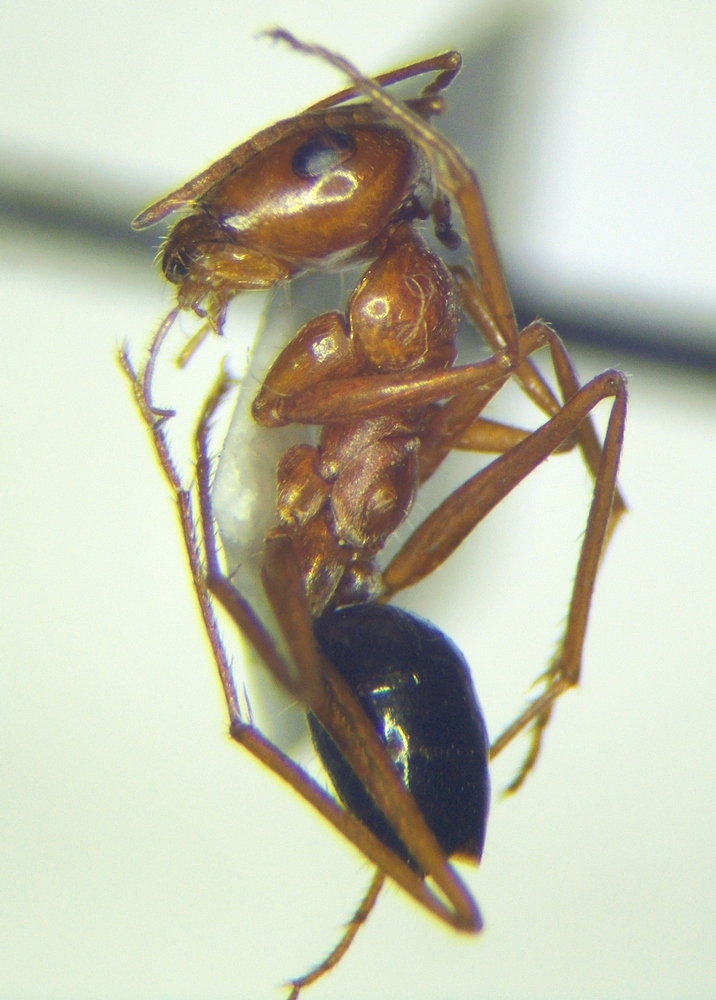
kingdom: Animalia
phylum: Arthropoda
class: Insecta
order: Hymenoptera
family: Formicidae
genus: Cataglyphis
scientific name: Cataglyphis rubra
